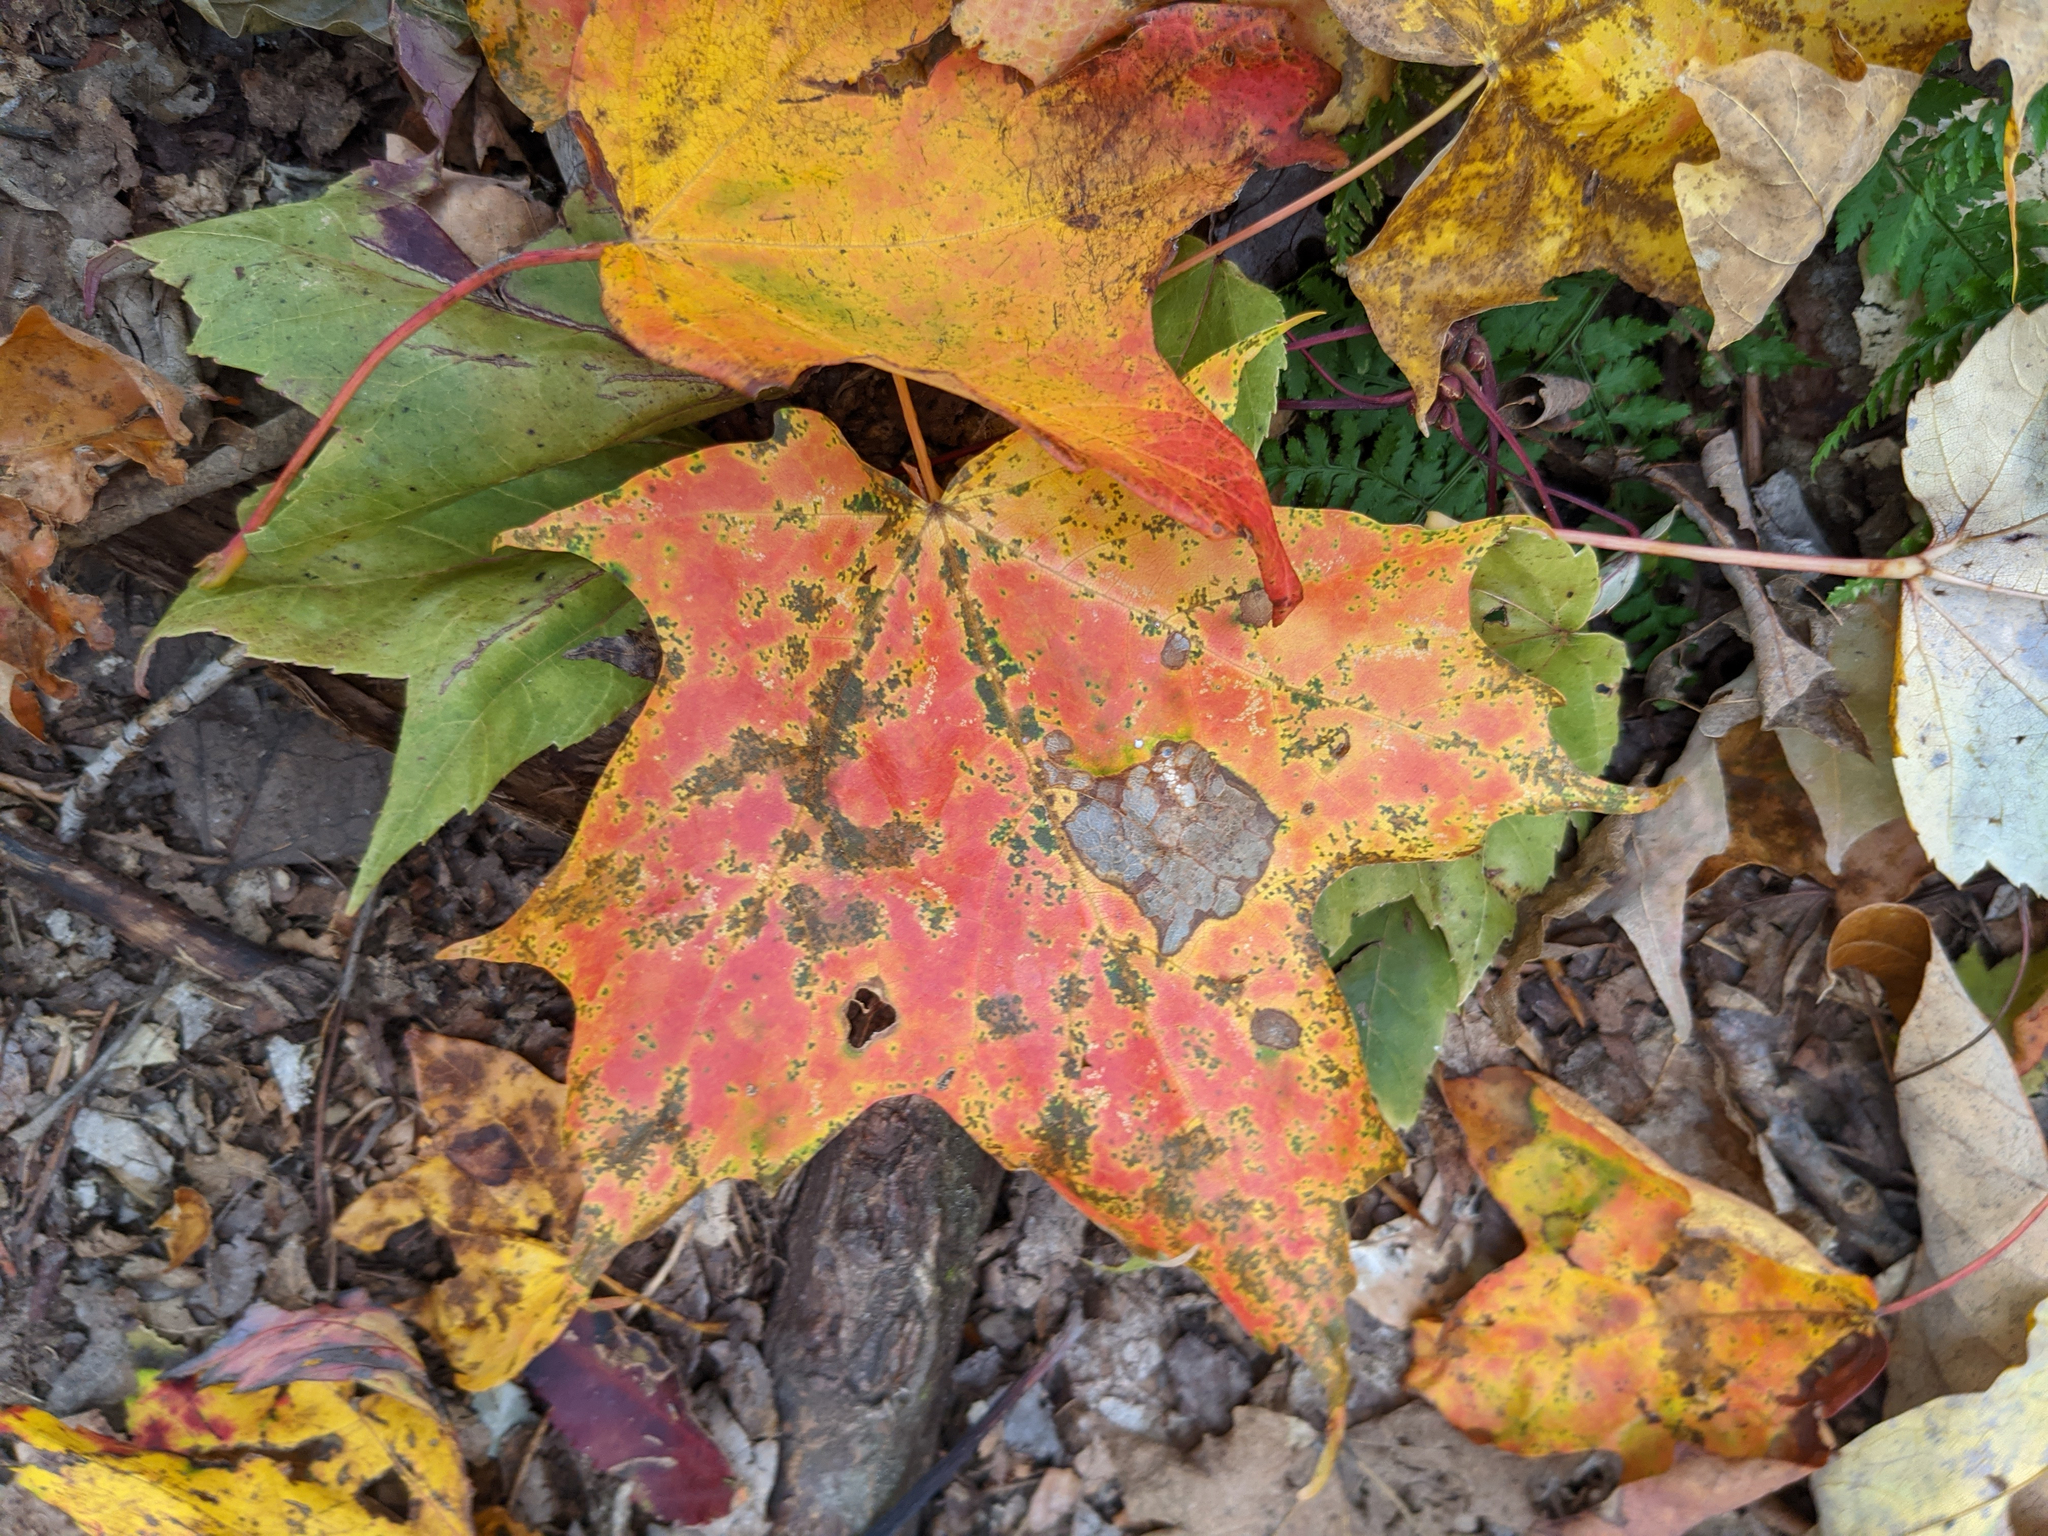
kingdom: Plantae
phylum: Tracheophyta
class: Magnoliopsida
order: Sapindales
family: Sapindaceae
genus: Acer
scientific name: Acer saccharum
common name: Sugar maple
